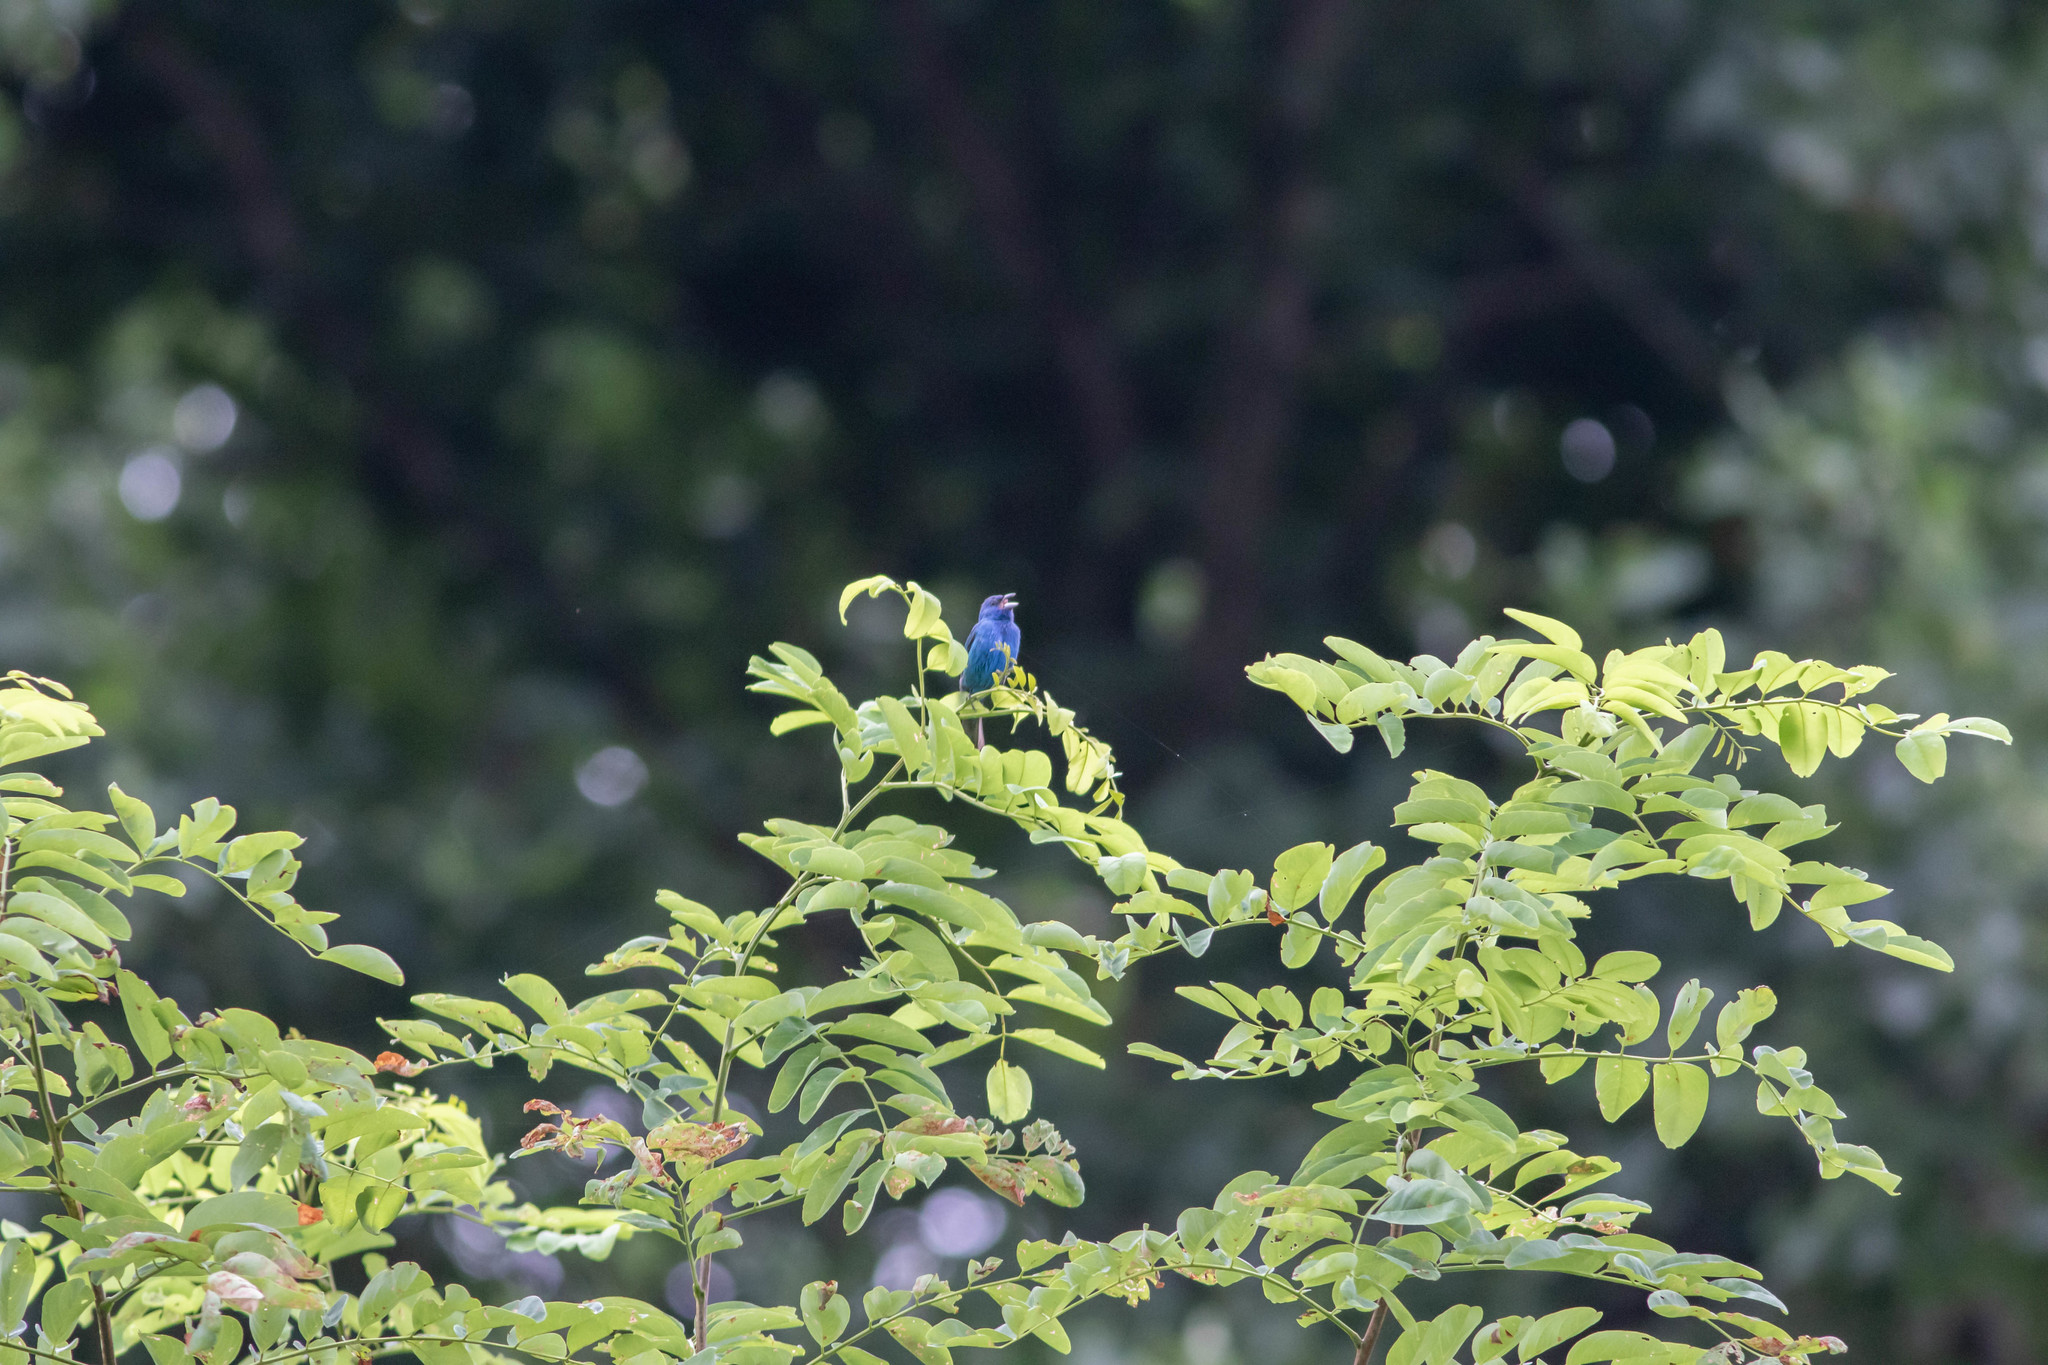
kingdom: Animalia
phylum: Chordata
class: Aves
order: Passeriformes
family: Cardinalidae
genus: Passerina
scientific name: Passerina cyanea
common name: Indigo bunting
